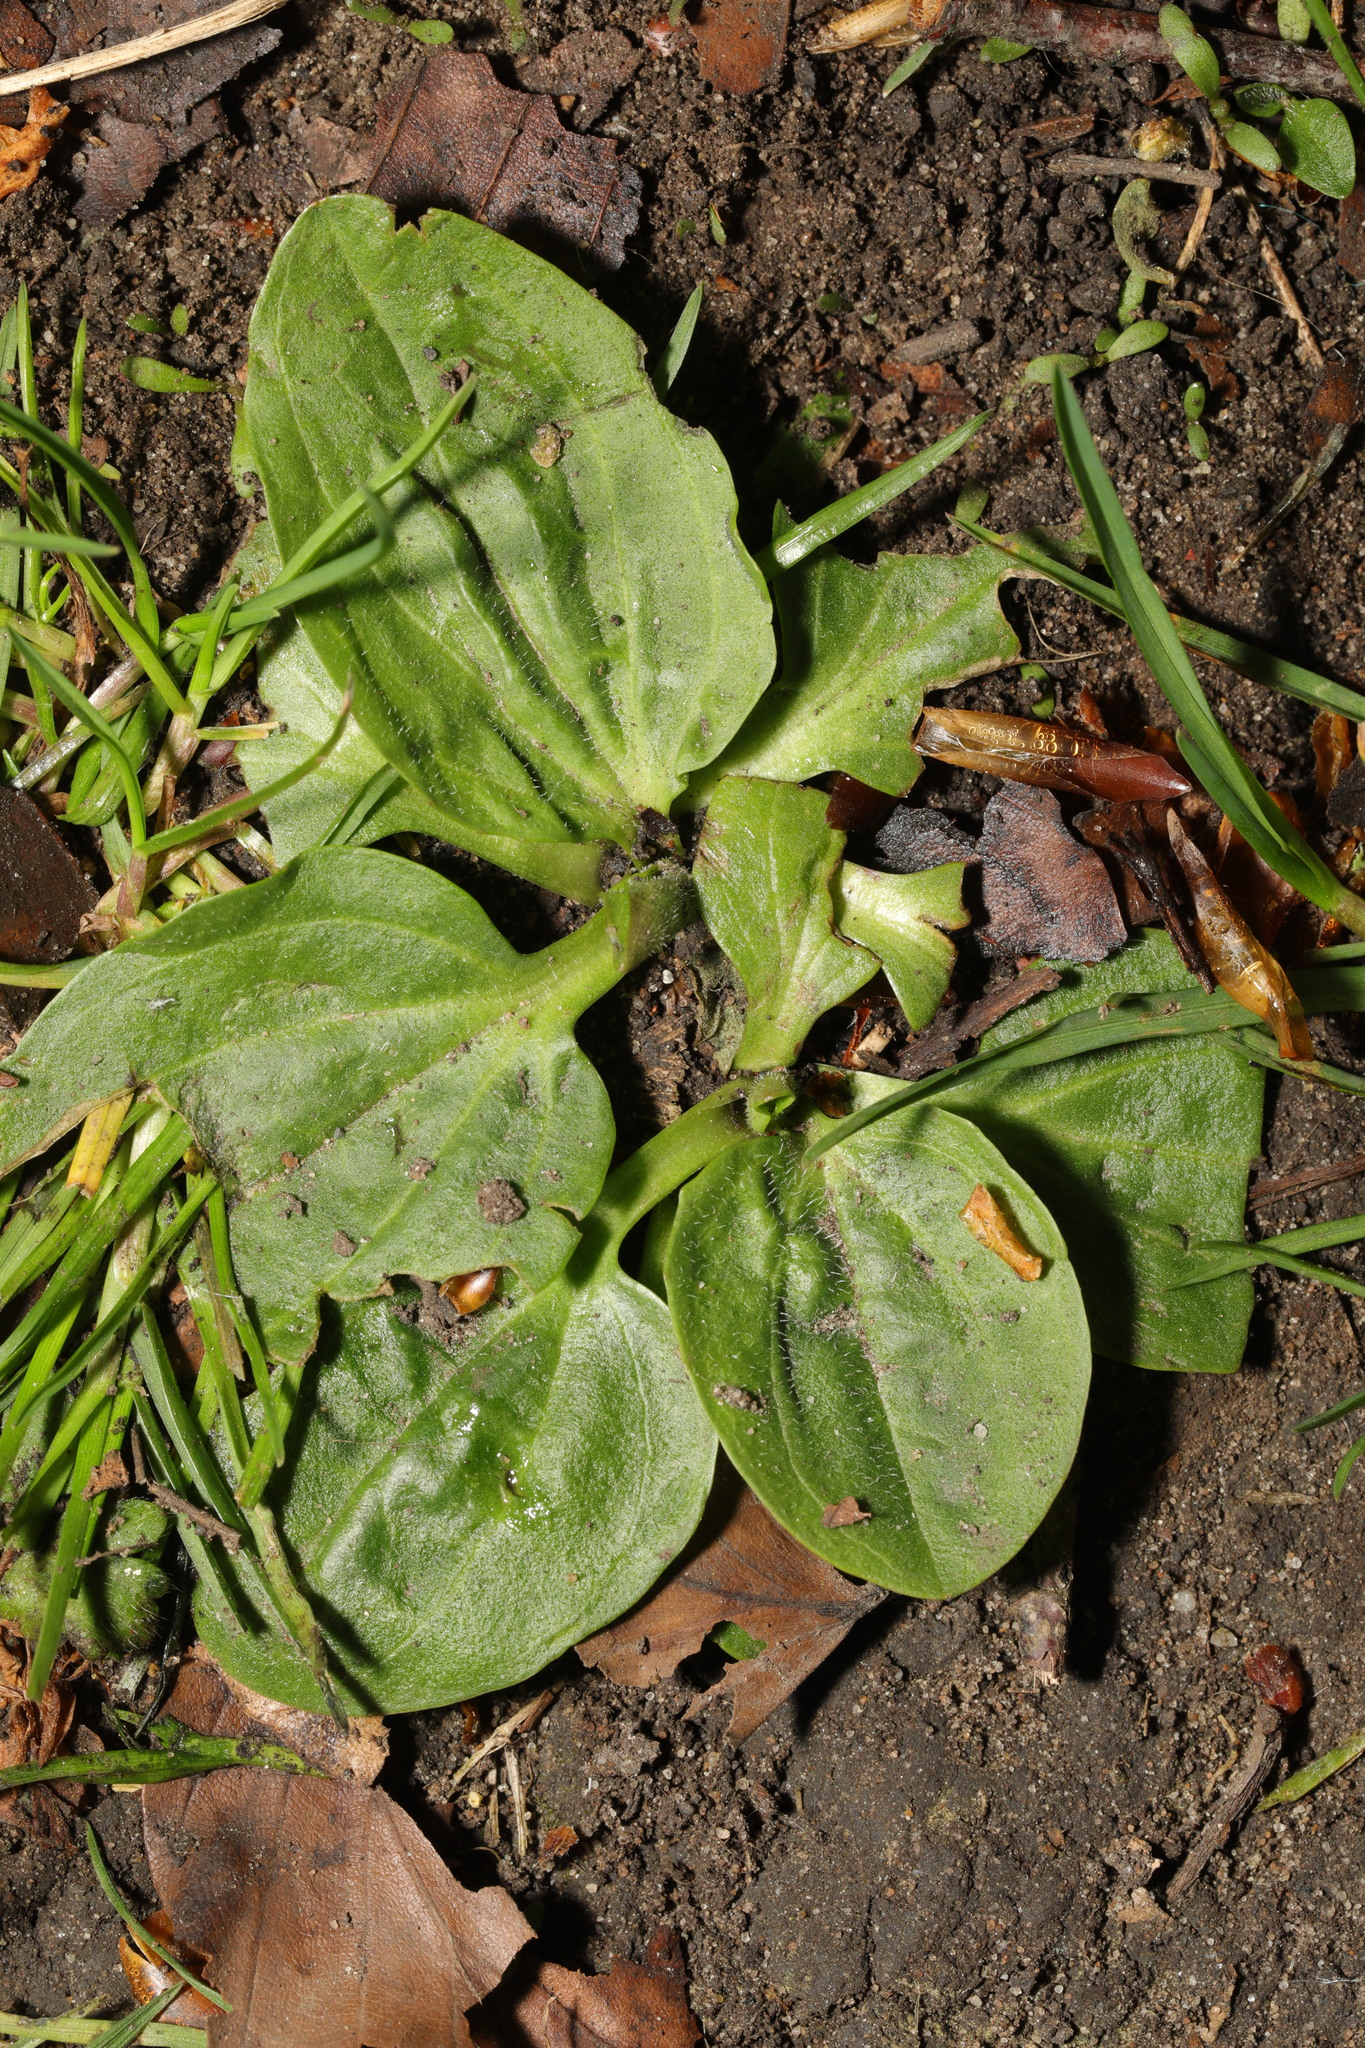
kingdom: Plantae
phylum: Tracheophyta
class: Magnoliopsida
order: Lamiales
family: Plantaginaceae
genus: Plantago
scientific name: Plantago major
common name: Common plantain
